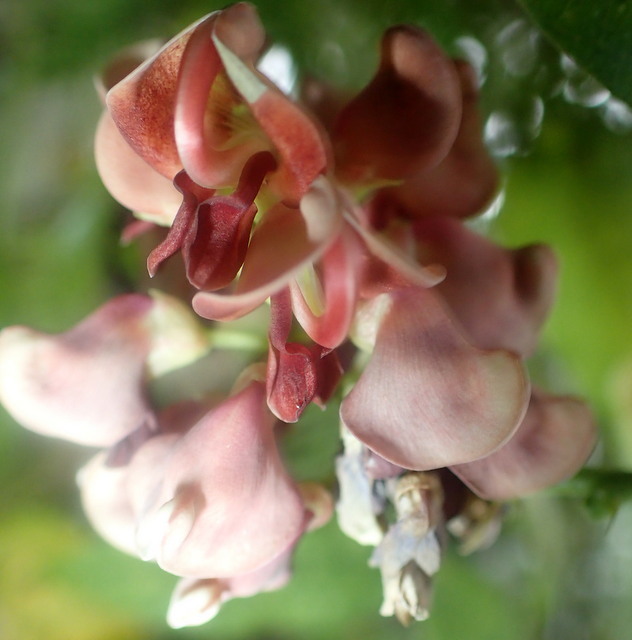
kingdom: Plantae
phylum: Tracheophyta
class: Magnoliopsida
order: Fabales
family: Fabaceae
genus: Apios
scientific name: Apios americana
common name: American potato-bean
